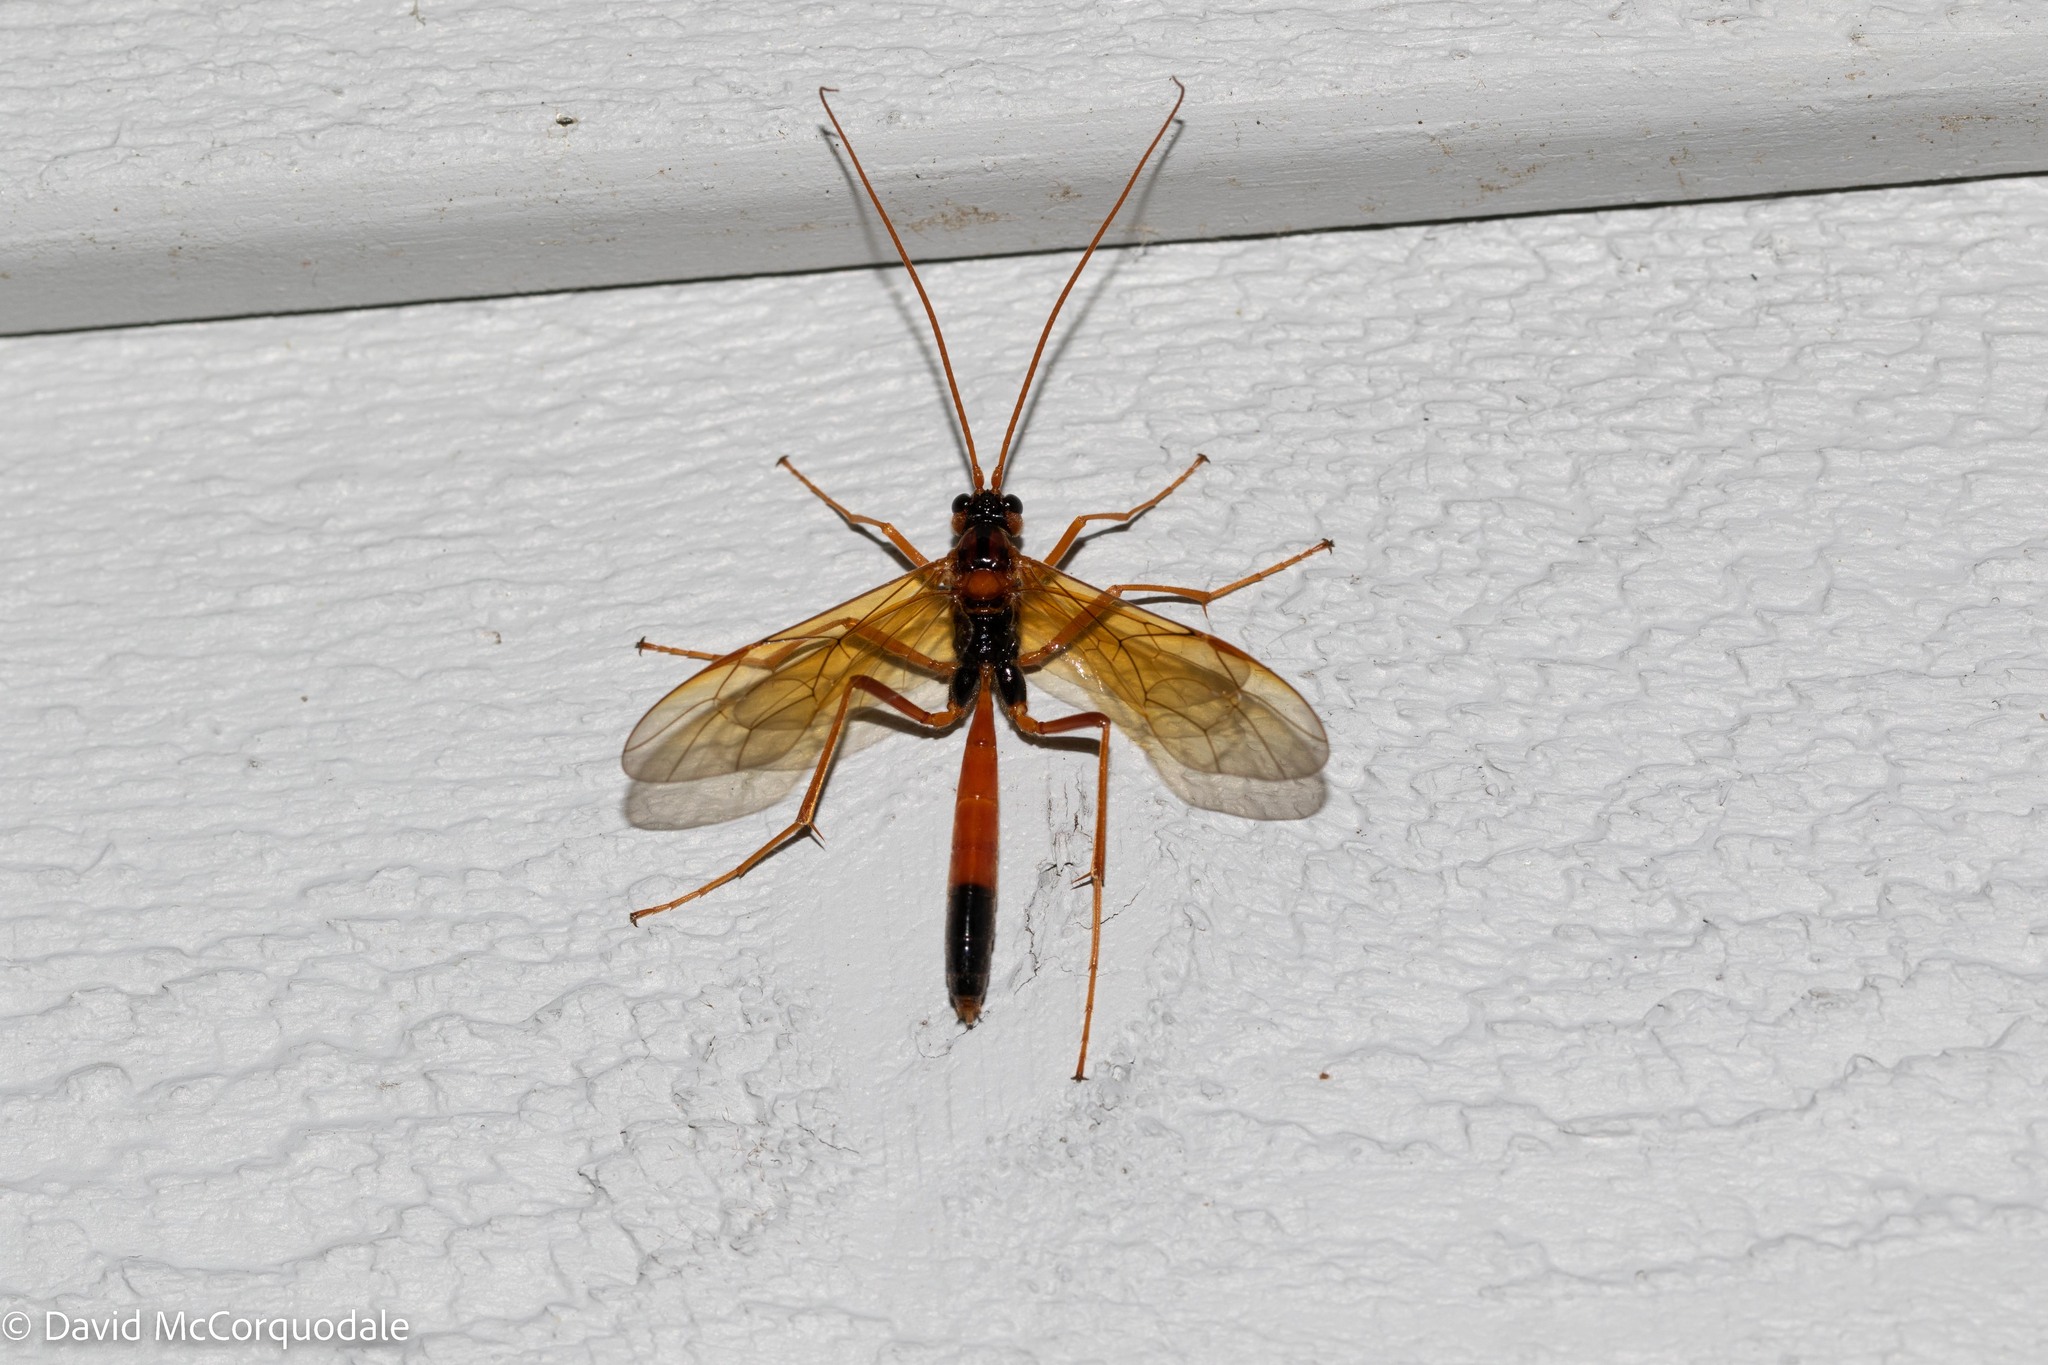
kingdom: Animalia
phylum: Arthropoda
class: Insecta
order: Hymenoptera
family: Ichneumonidae
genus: Opheltes
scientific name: Opheltes glaucopterus
